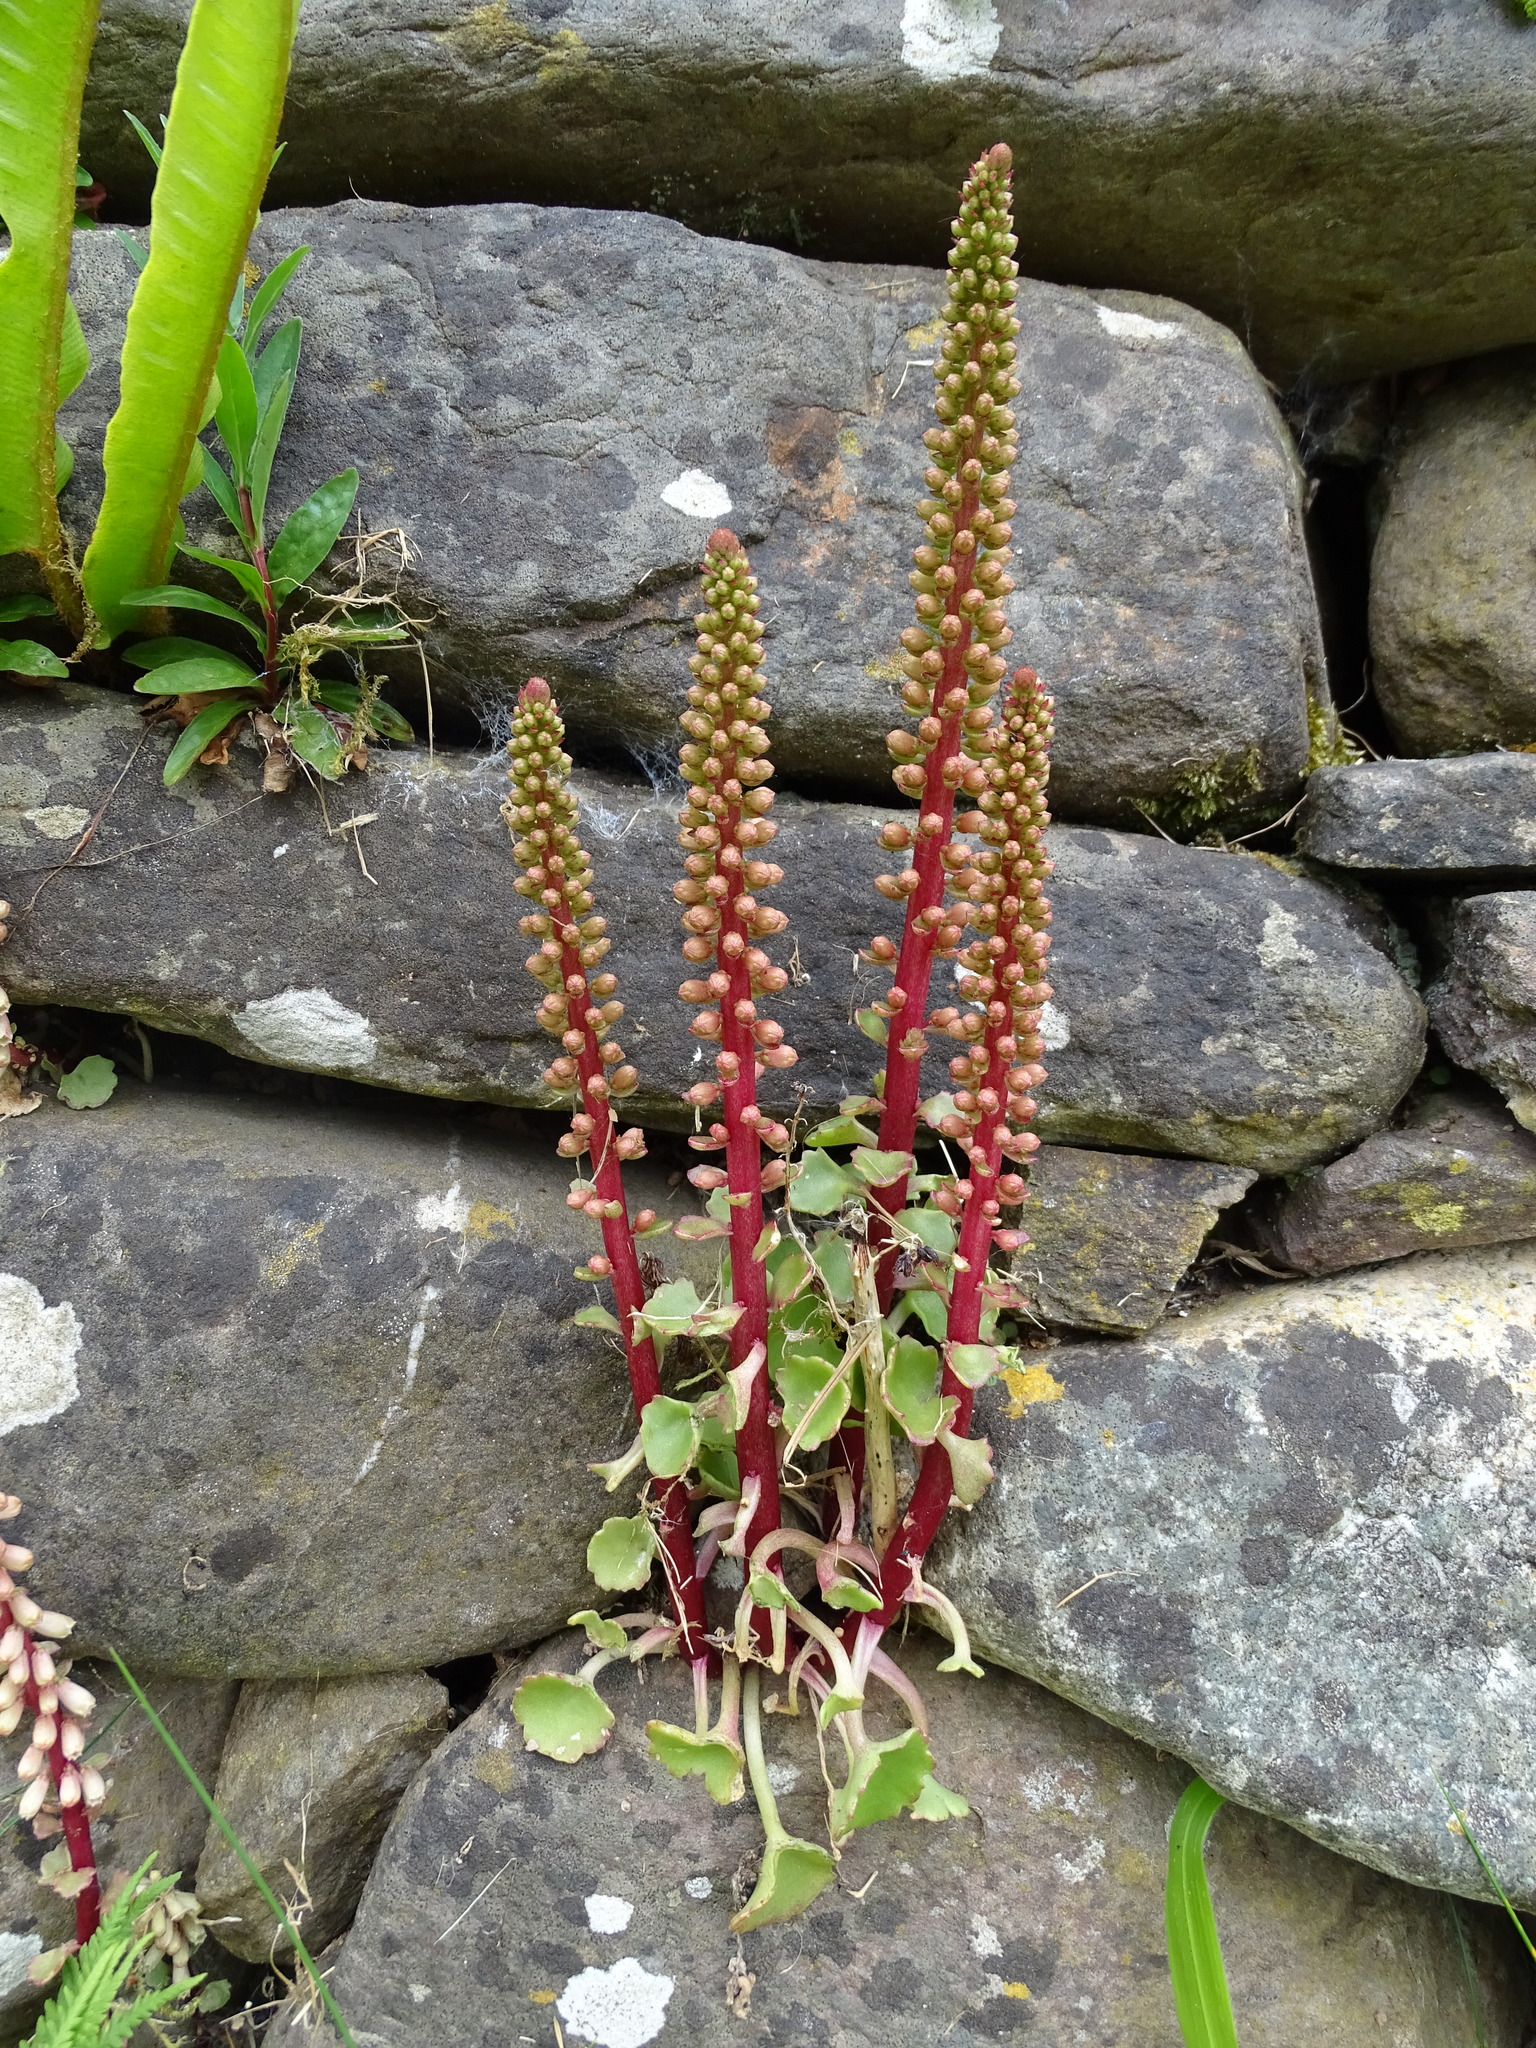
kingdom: Plantae
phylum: Tracheophyta
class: Magnoliopsida
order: Saxifragales
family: Crassulaceae
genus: Umbilicus
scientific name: Umbilicus rupestris
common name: Navelwort
